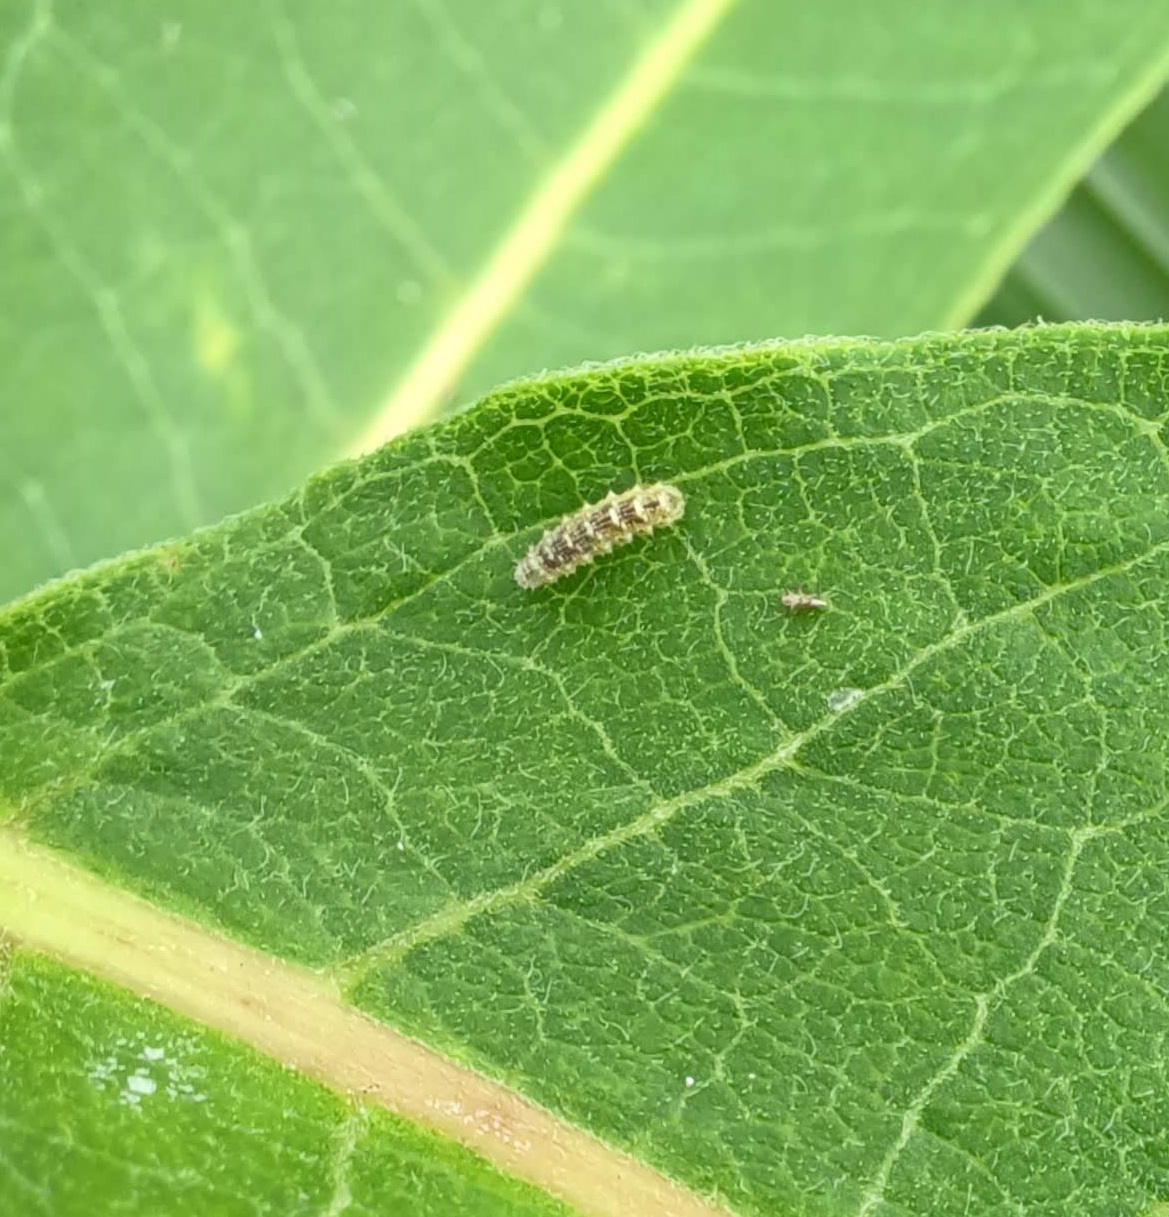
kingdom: Animalia
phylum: Arthropoda
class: Insecta
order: Diptera
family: Syrphidae
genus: Eupeodes
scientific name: Eupeodes americanus
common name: Long-tailed aphideater
